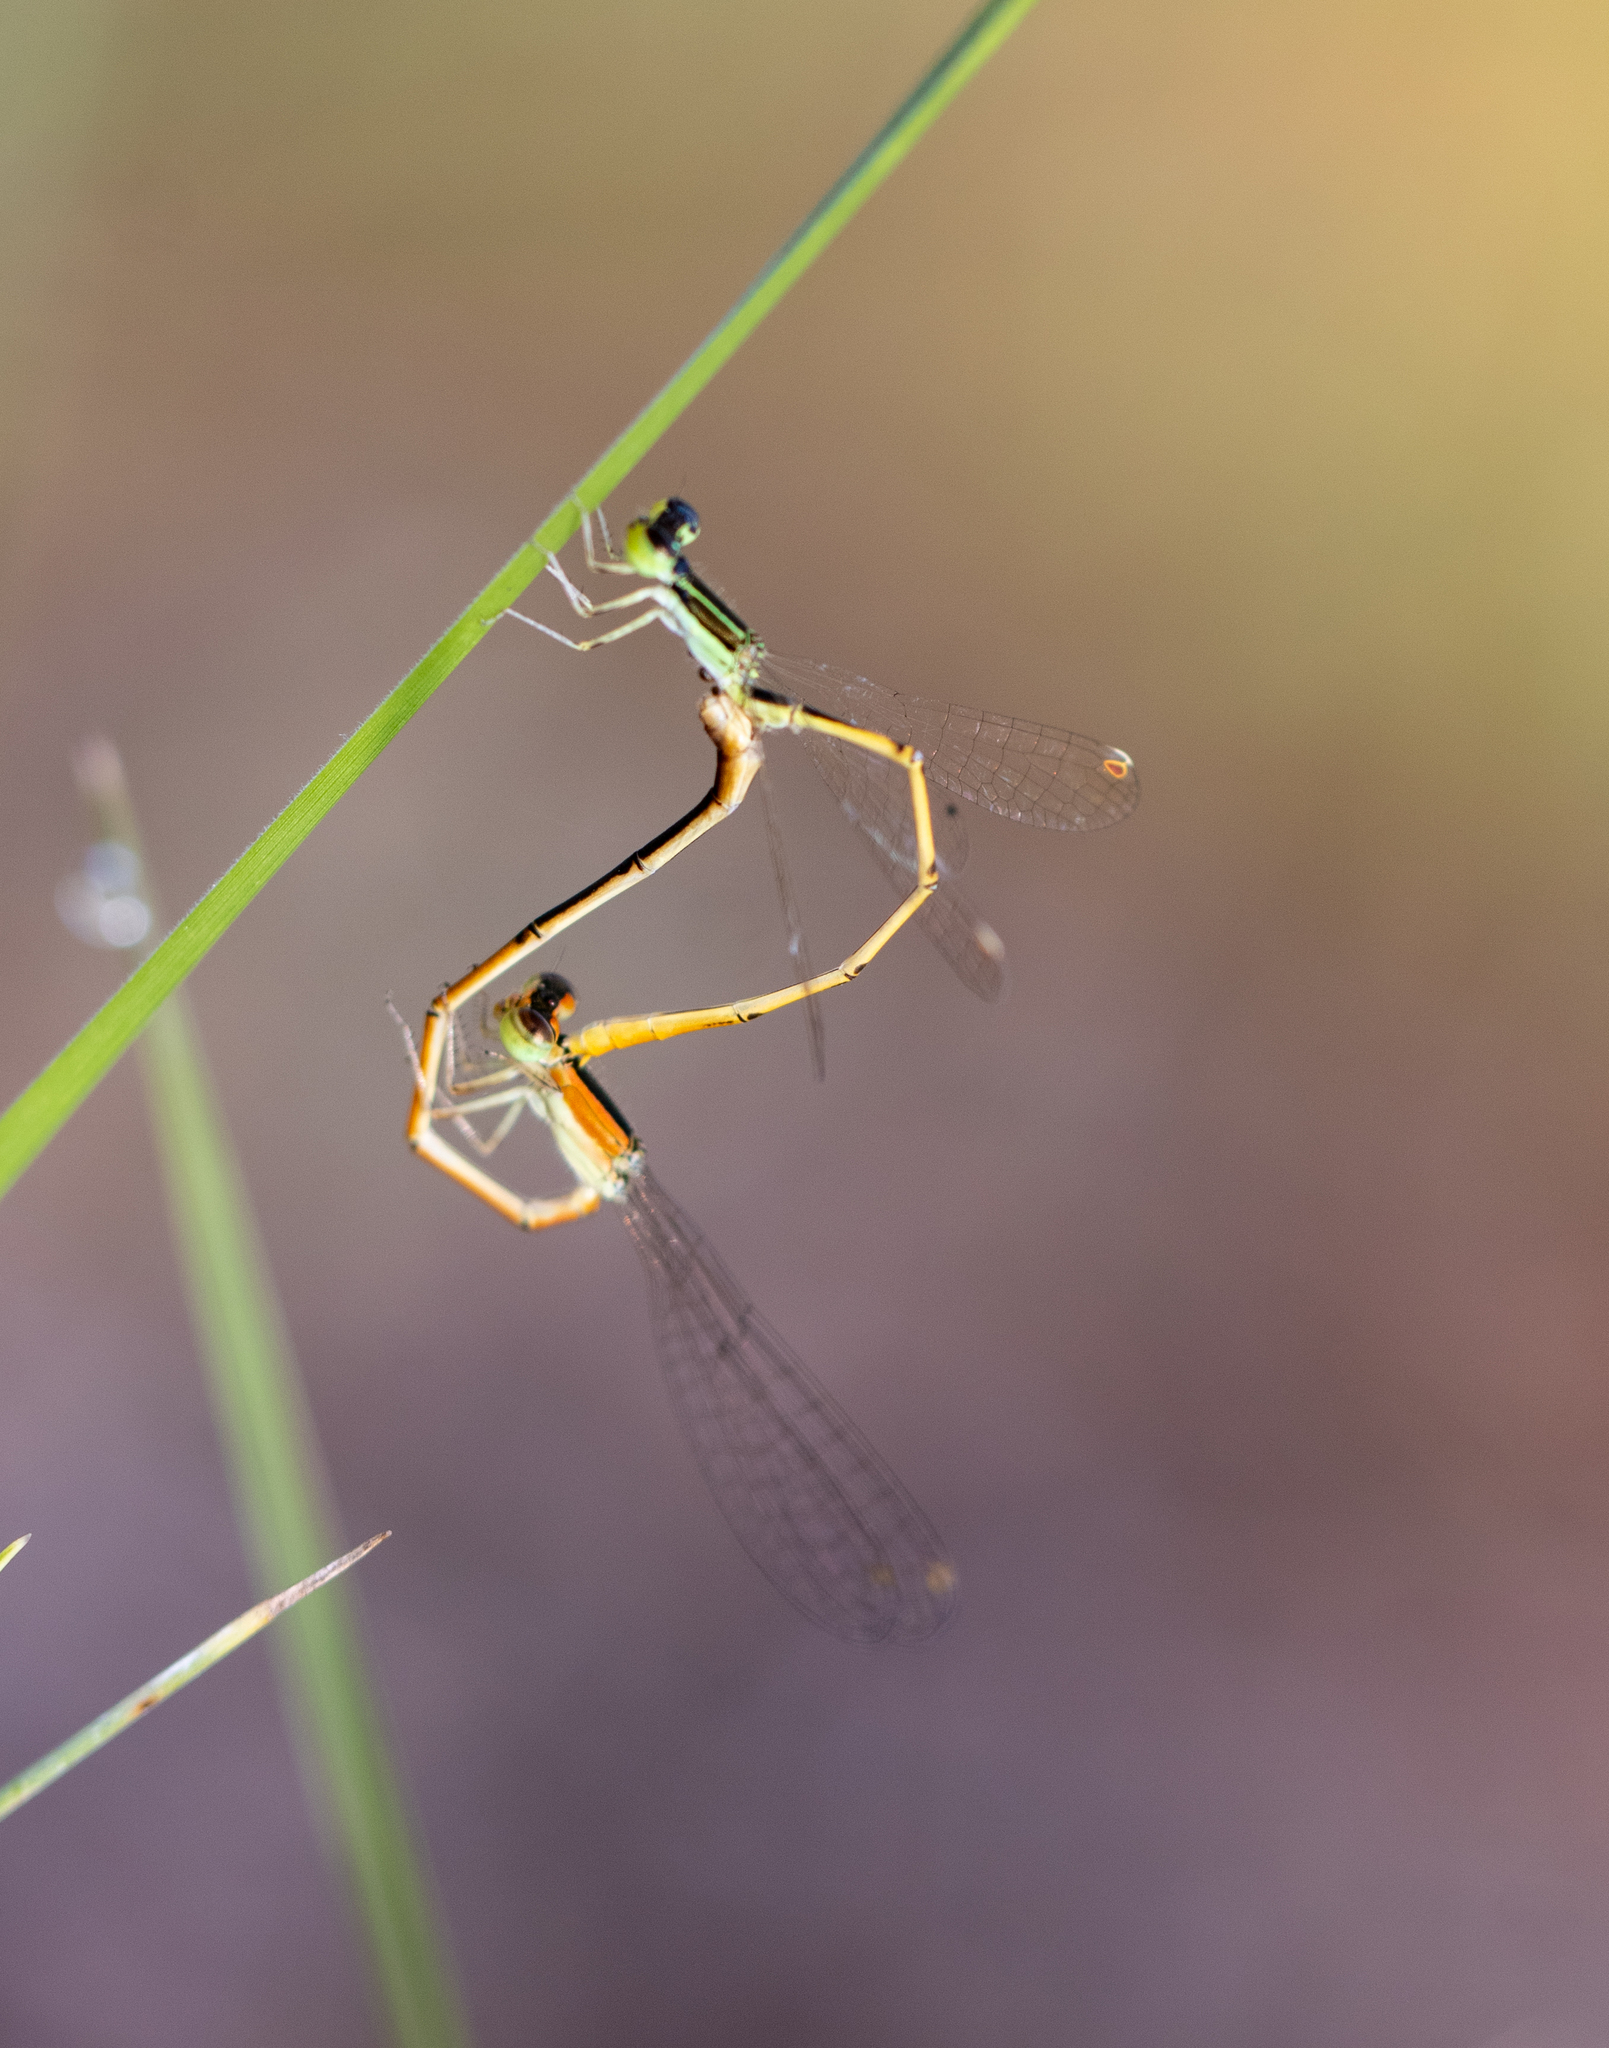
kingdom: Animalia
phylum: Arthropoda
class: Insecta
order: Odonata
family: Coenagrionidae
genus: Ischnura
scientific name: Ischnura hastata
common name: Citrine forktail
